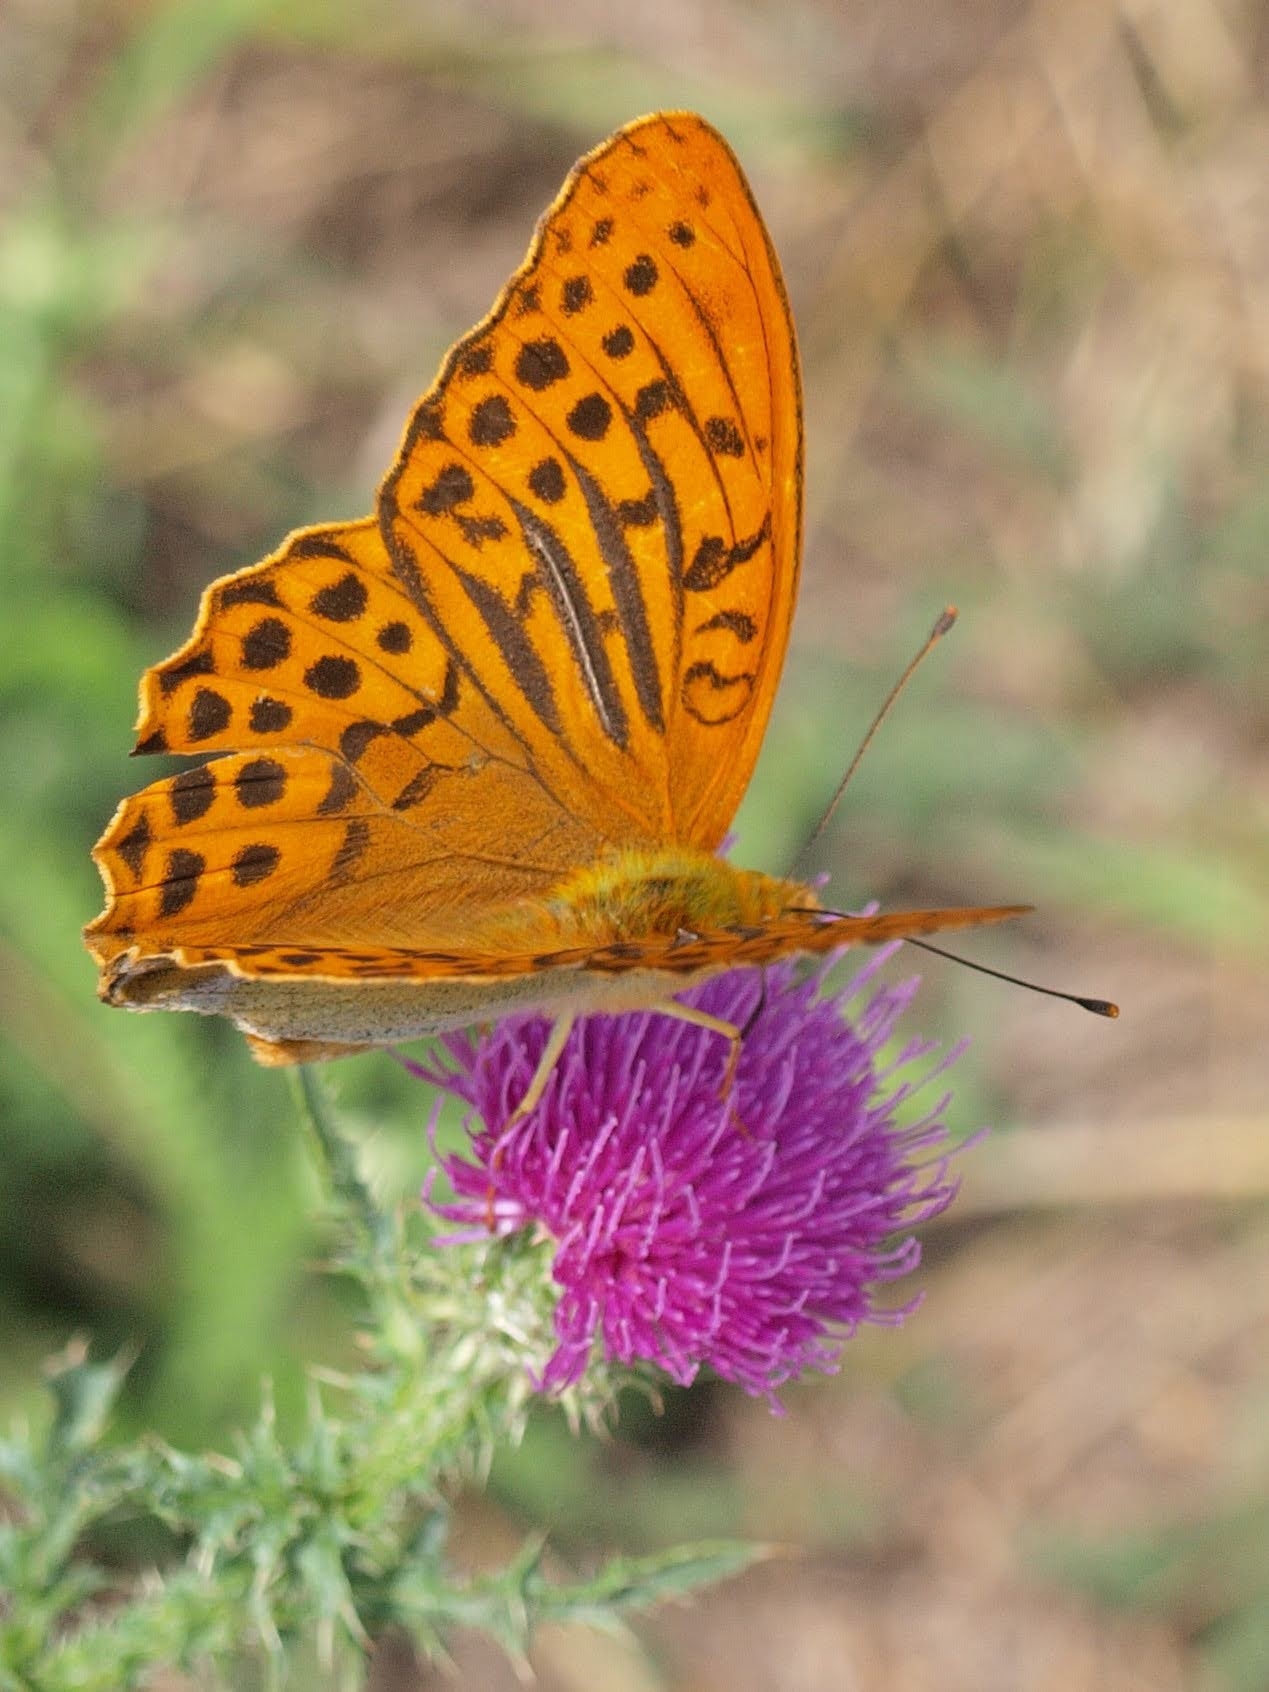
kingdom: Animalia
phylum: Arthropoda
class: Insecta
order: Lepidoptera
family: Nymphalidae
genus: Argynnis
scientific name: Argynnis paphia
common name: Silver-washed fritillary
